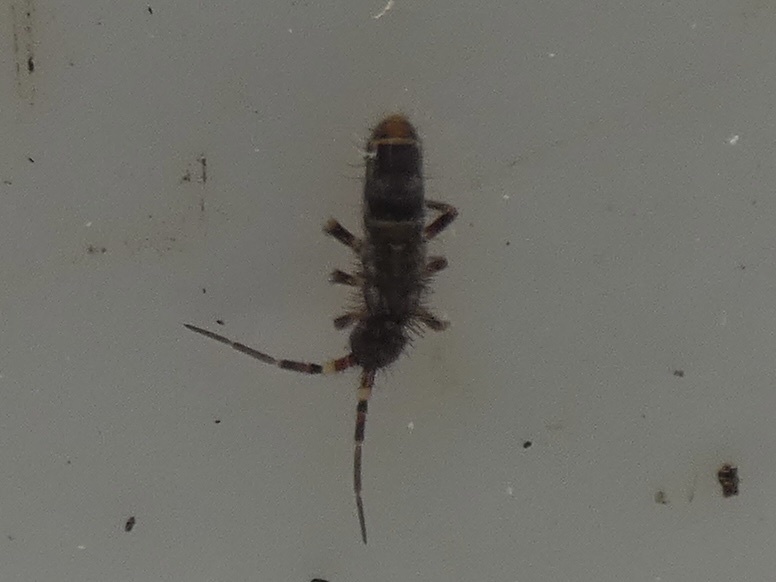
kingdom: Animalia
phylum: Arthropoda
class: Collembola
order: Entomobryomorpha
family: Orchesellidae
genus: Orchesella
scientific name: Orchesella cincta
